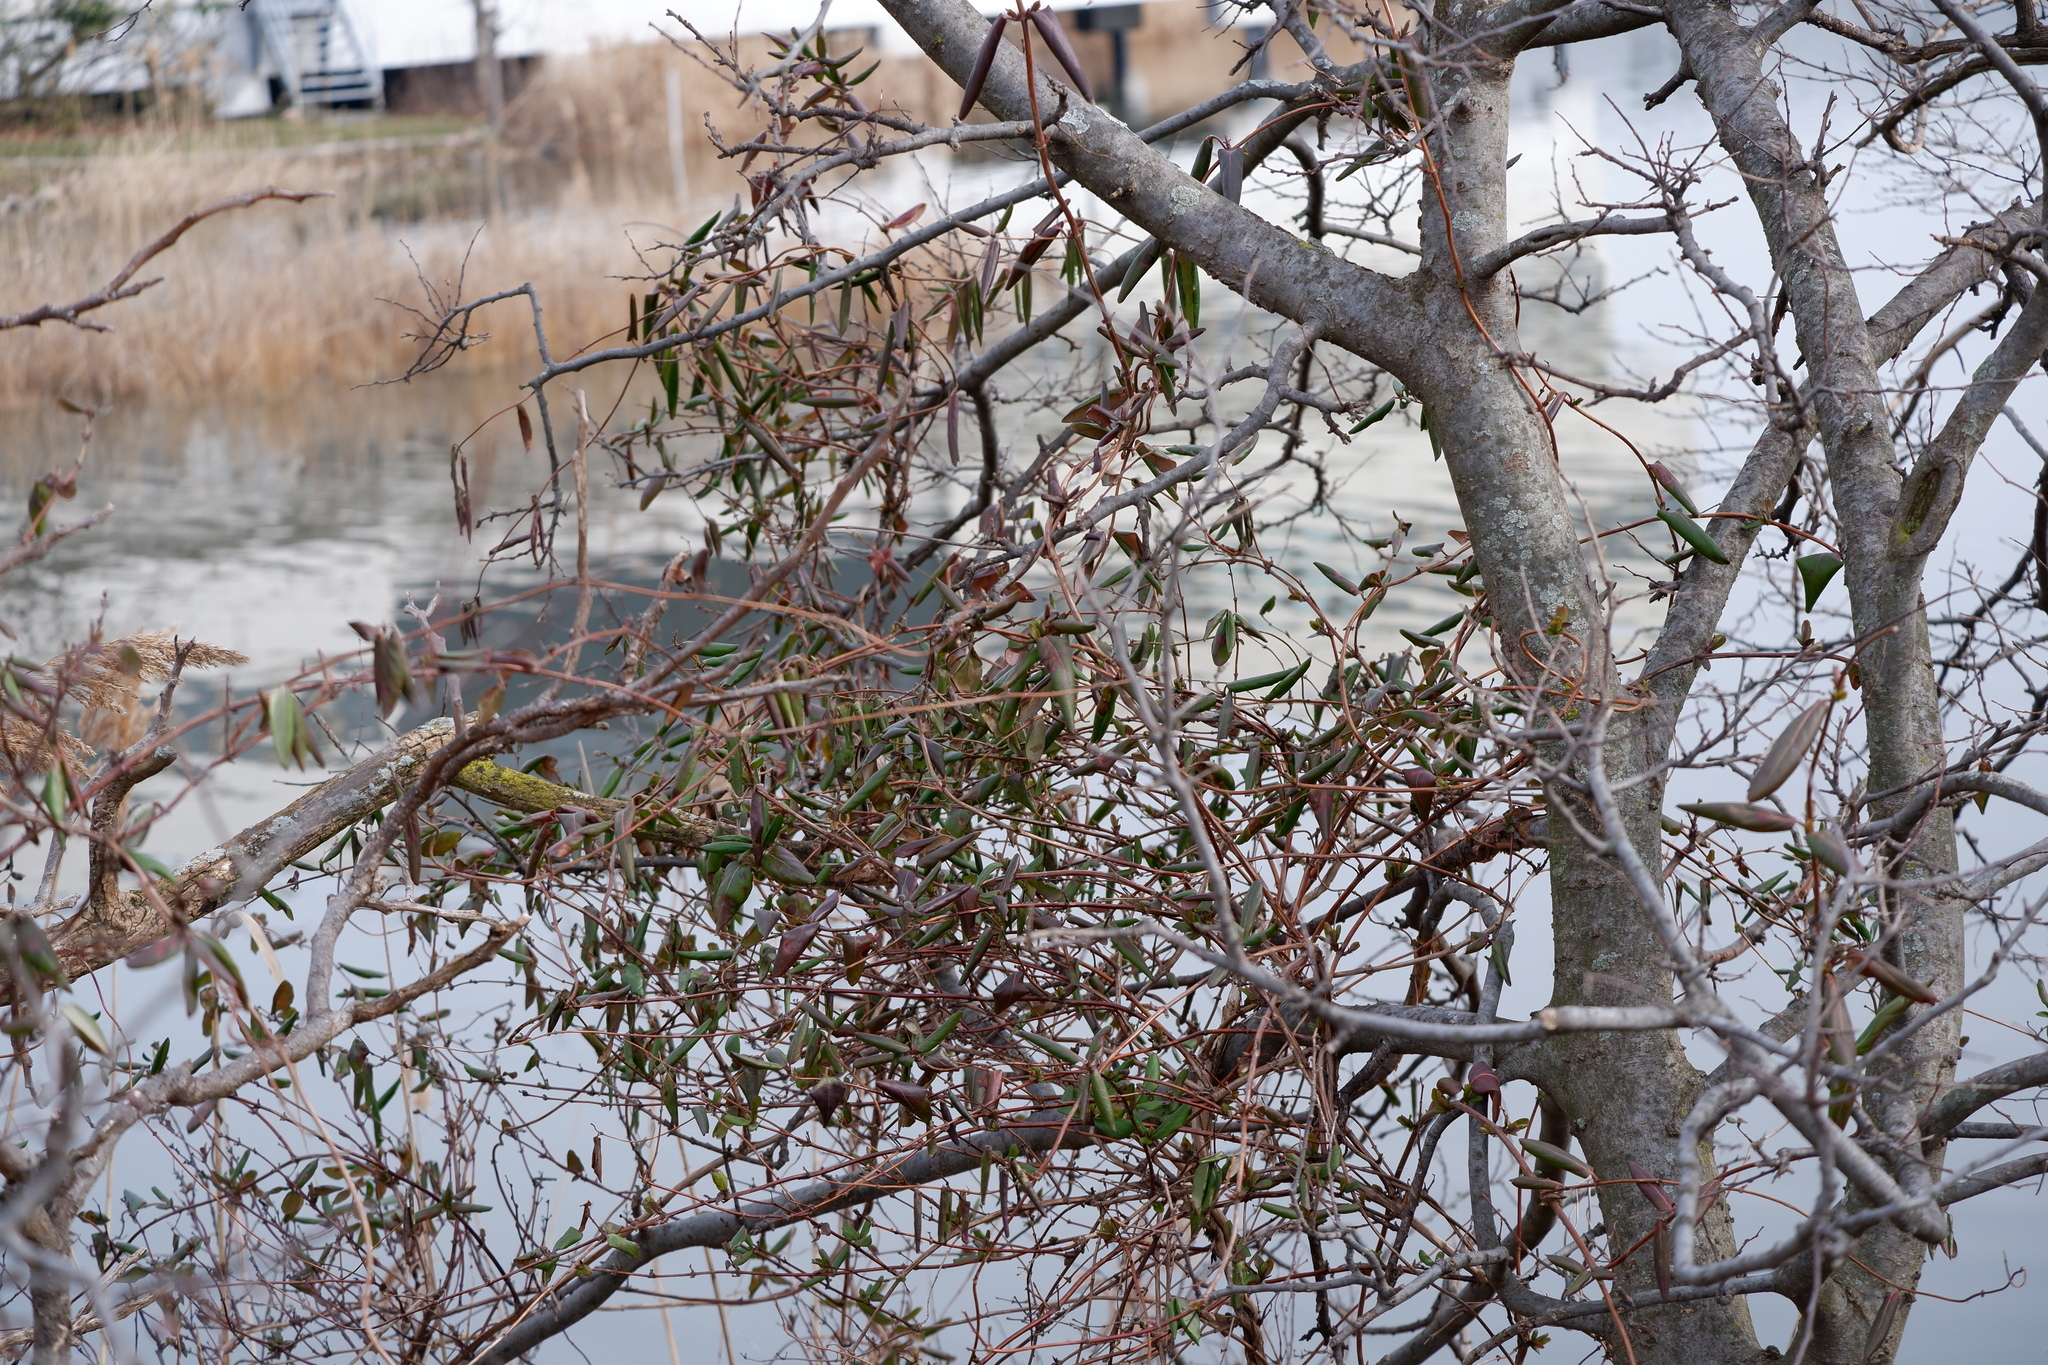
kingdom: Plantae
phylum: Tracheophyta
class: Magnoliopsida
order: Dipsacales
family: Caprifoliaceae
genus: Lonicera
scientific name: Lonicera japonica
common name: Japanese honeysuckle
